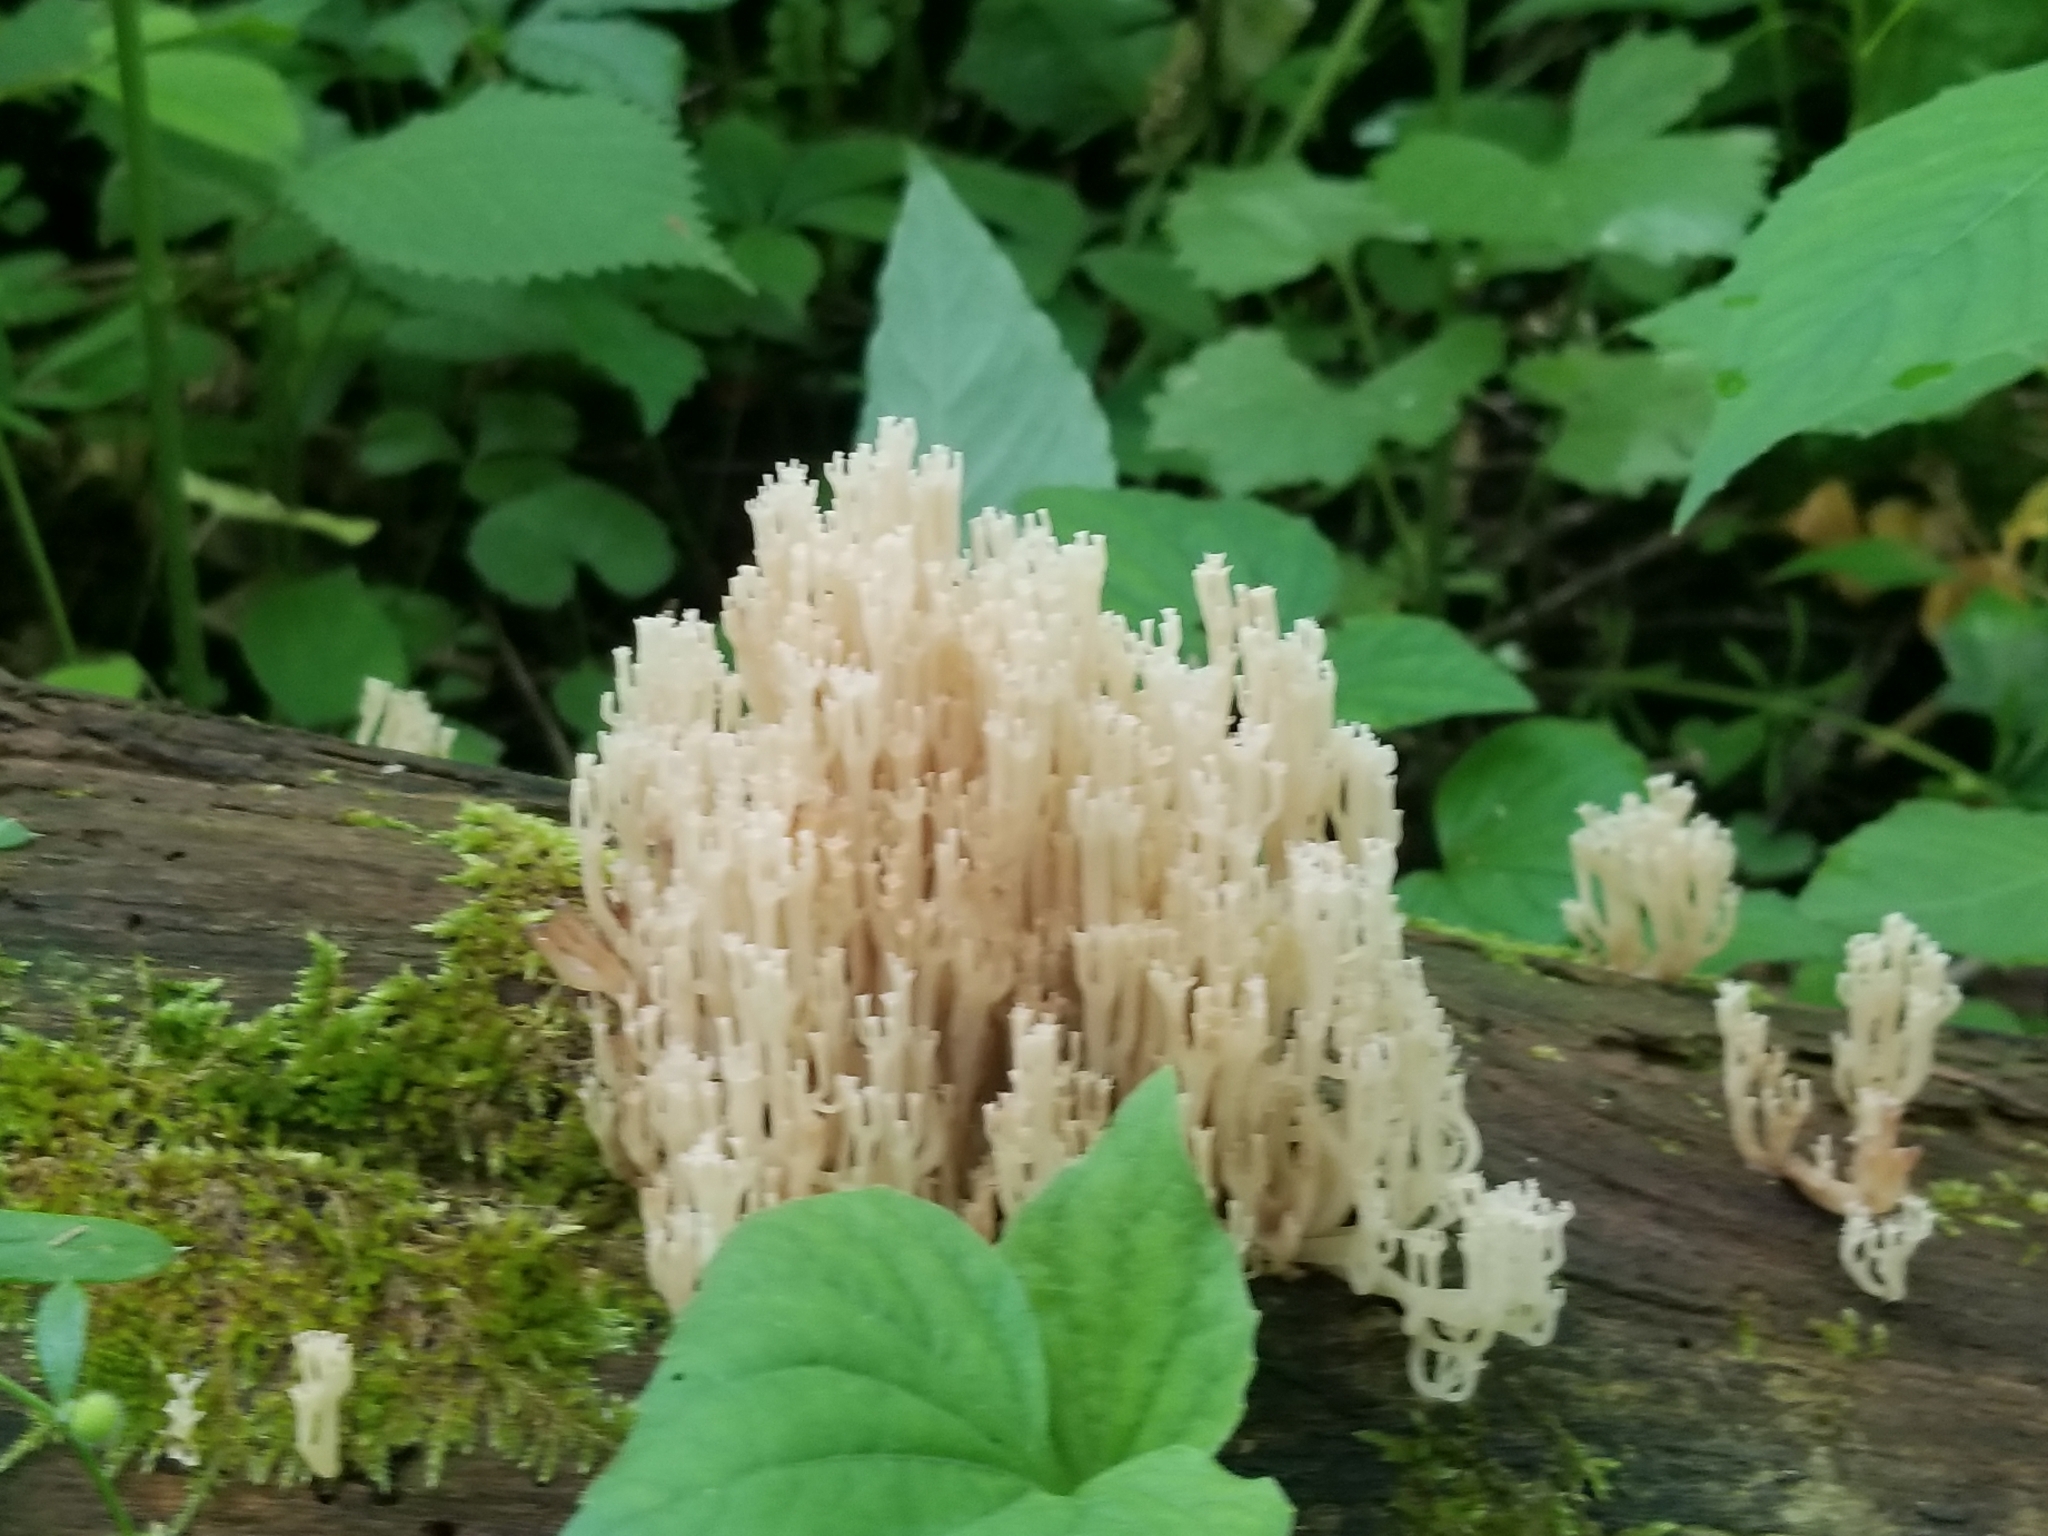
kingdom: Fungi
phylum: Basidiomycota
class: Agaricomycetes
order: Russulales
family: Auriscalpiaceae
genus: Artomyces
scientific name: Artomyces pyxidatus
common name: Crown-tipped coral fungus
